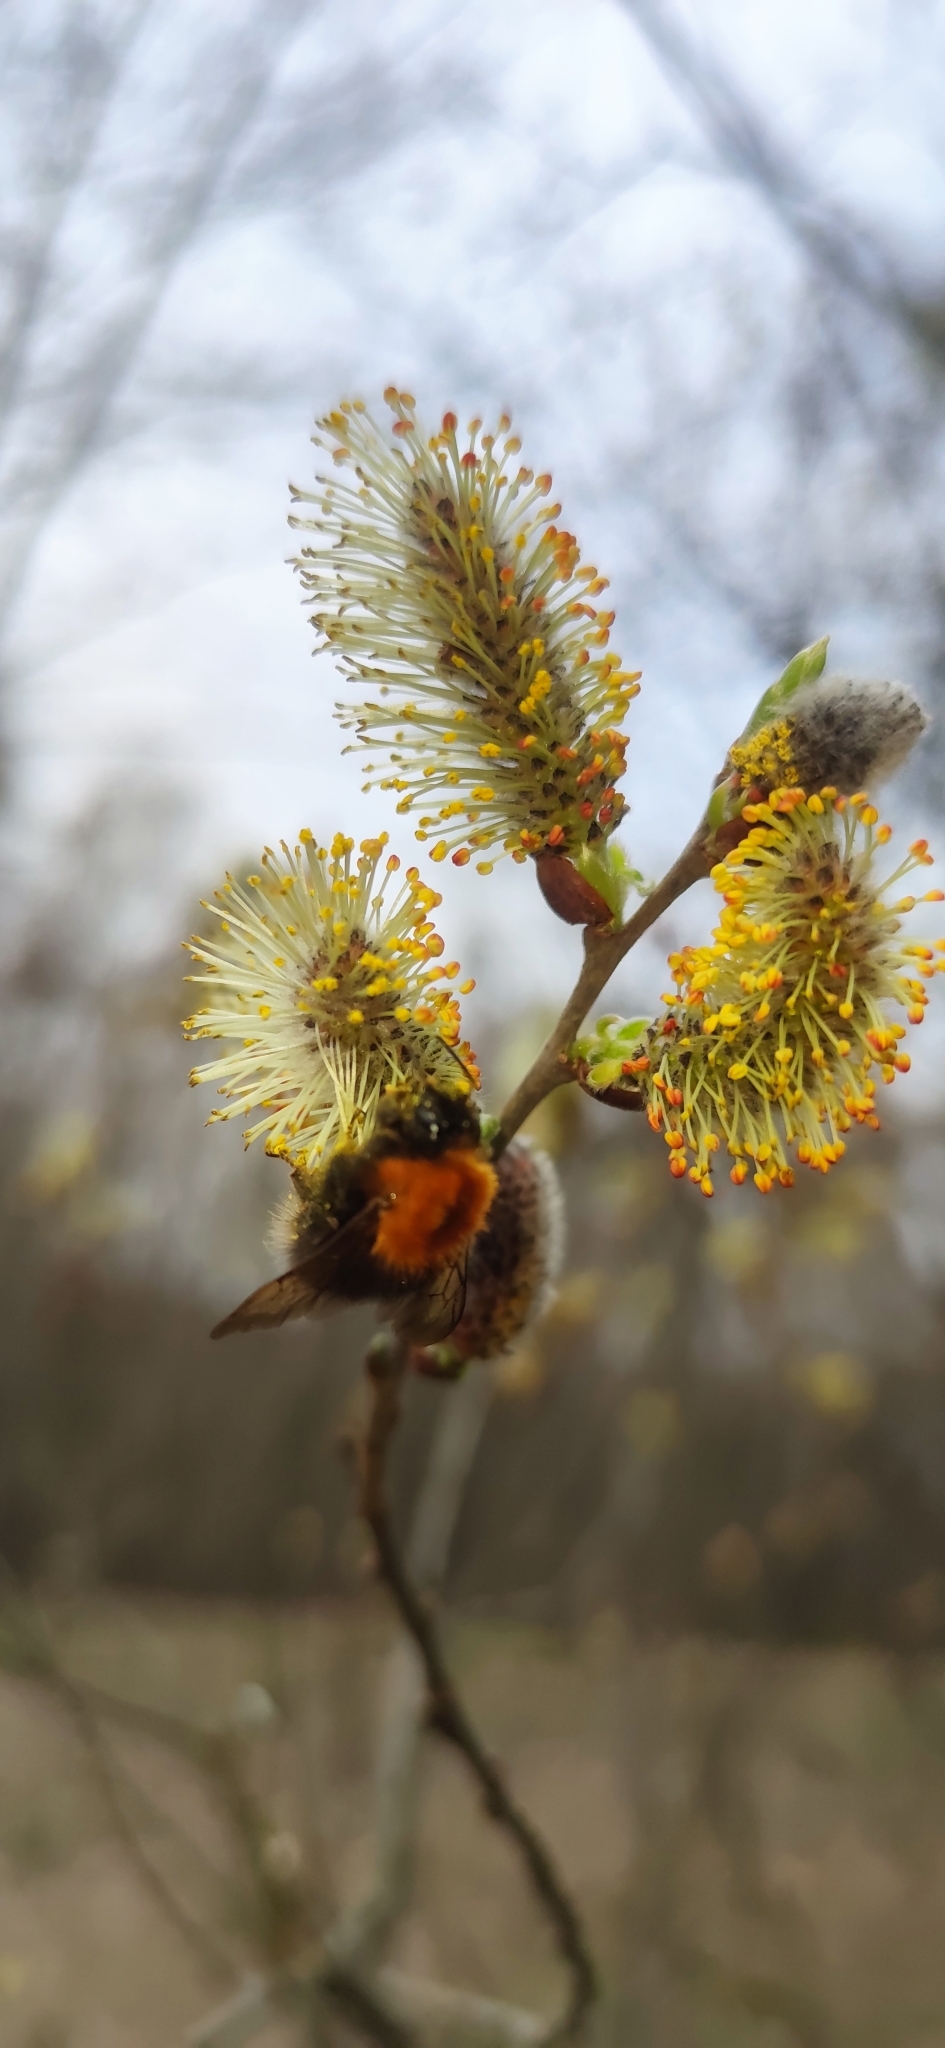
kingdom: Animalia
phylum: Arthropoda
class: Insecta
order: Hymenoptera
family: Apidae
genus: Bombus
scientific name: Bombus hypnorum
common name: New garden bumblebee
